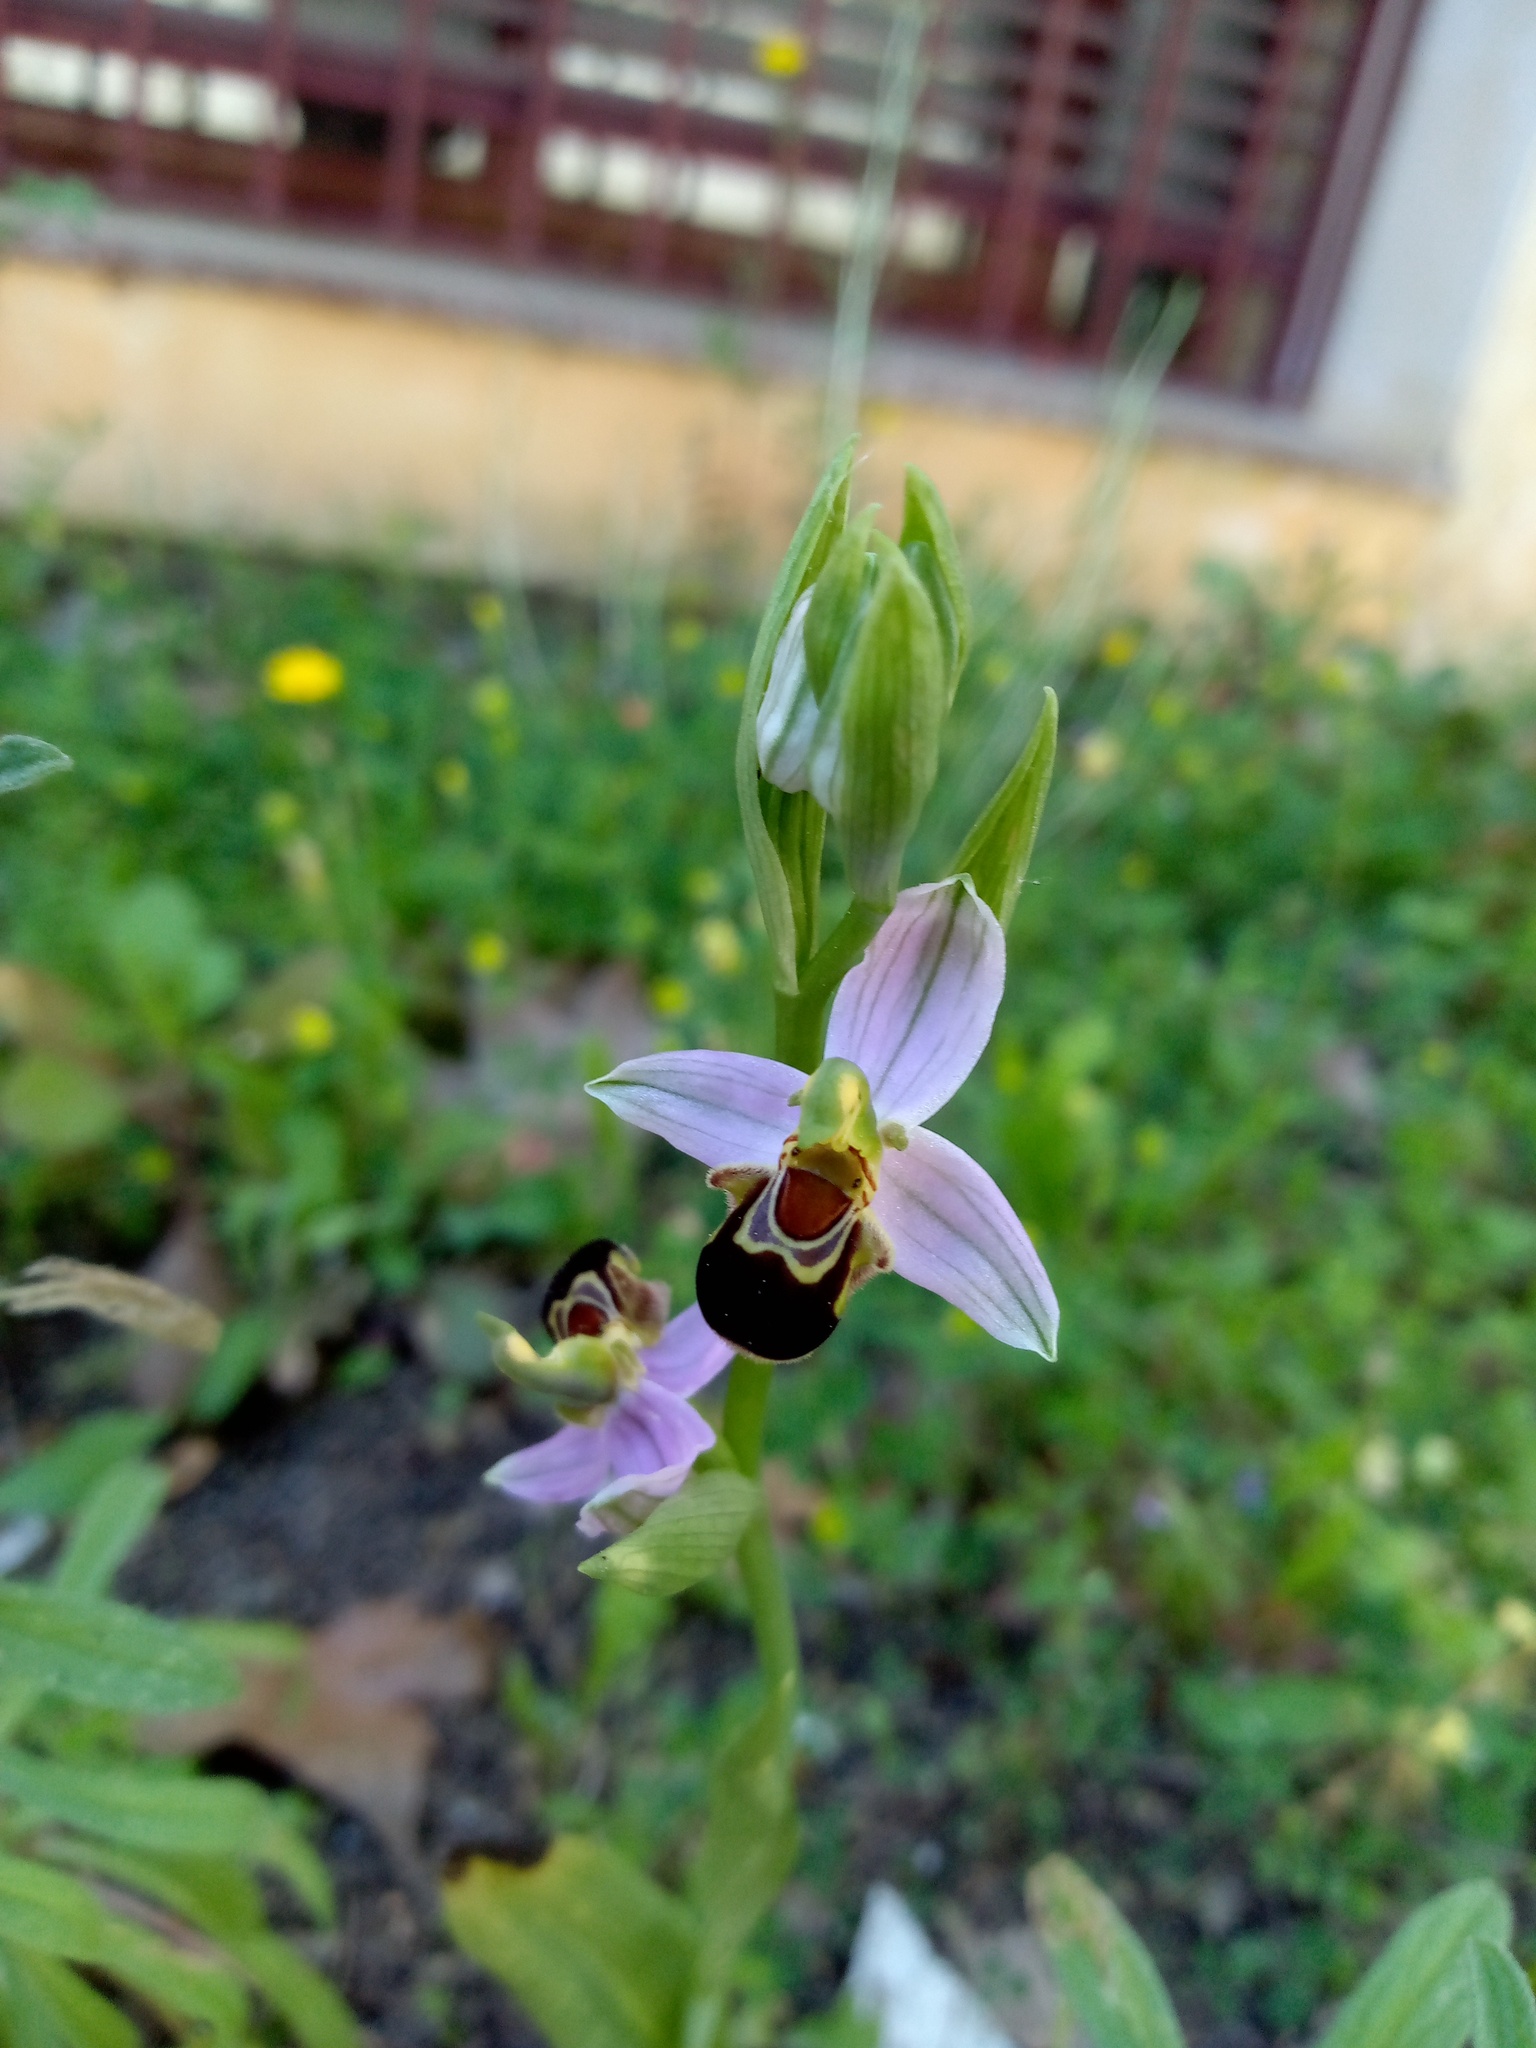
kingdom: Plantae
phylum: Tracheophyta
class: Liliopsida
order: Asparagales
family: Orchidaceae
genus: Ophrys
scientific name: Ophrys apifera
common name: Bee orchid
